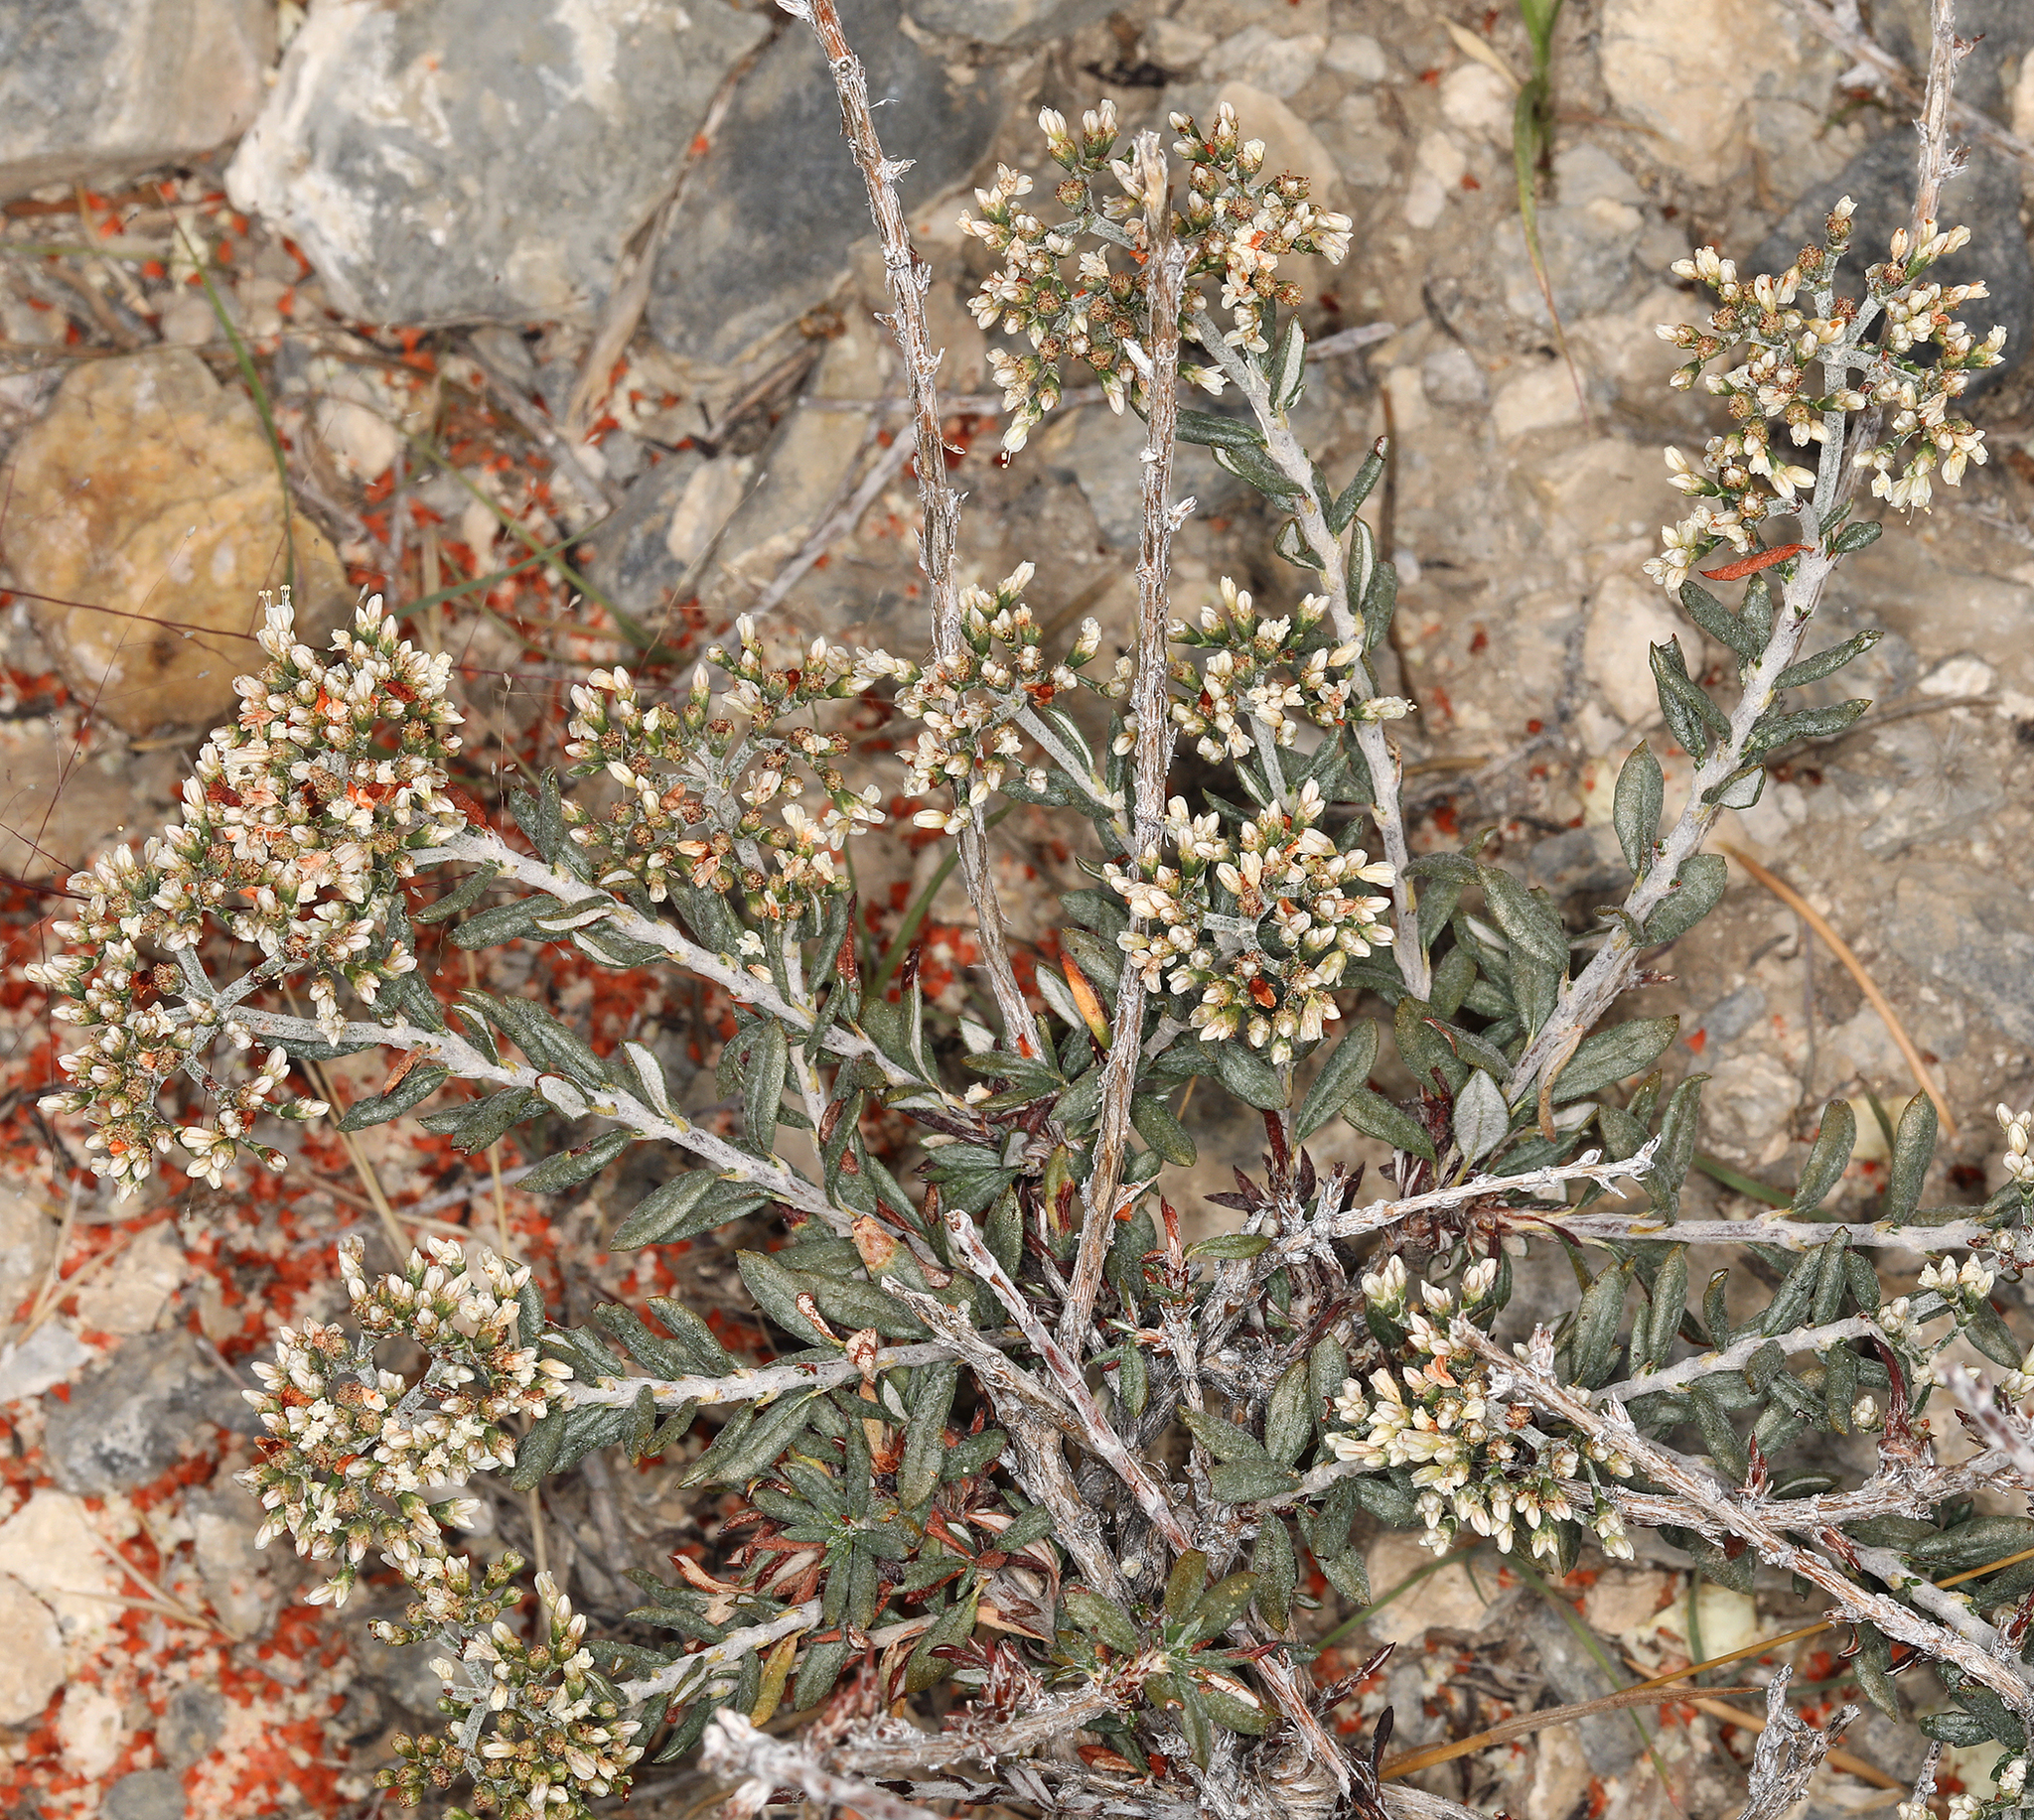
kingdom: Plantae
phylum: Tracheophyta
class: Magnoliopsida
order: Caryophyllales
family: Polygonaceae
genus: Eriogonum
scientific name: Eriogonum microtheca
